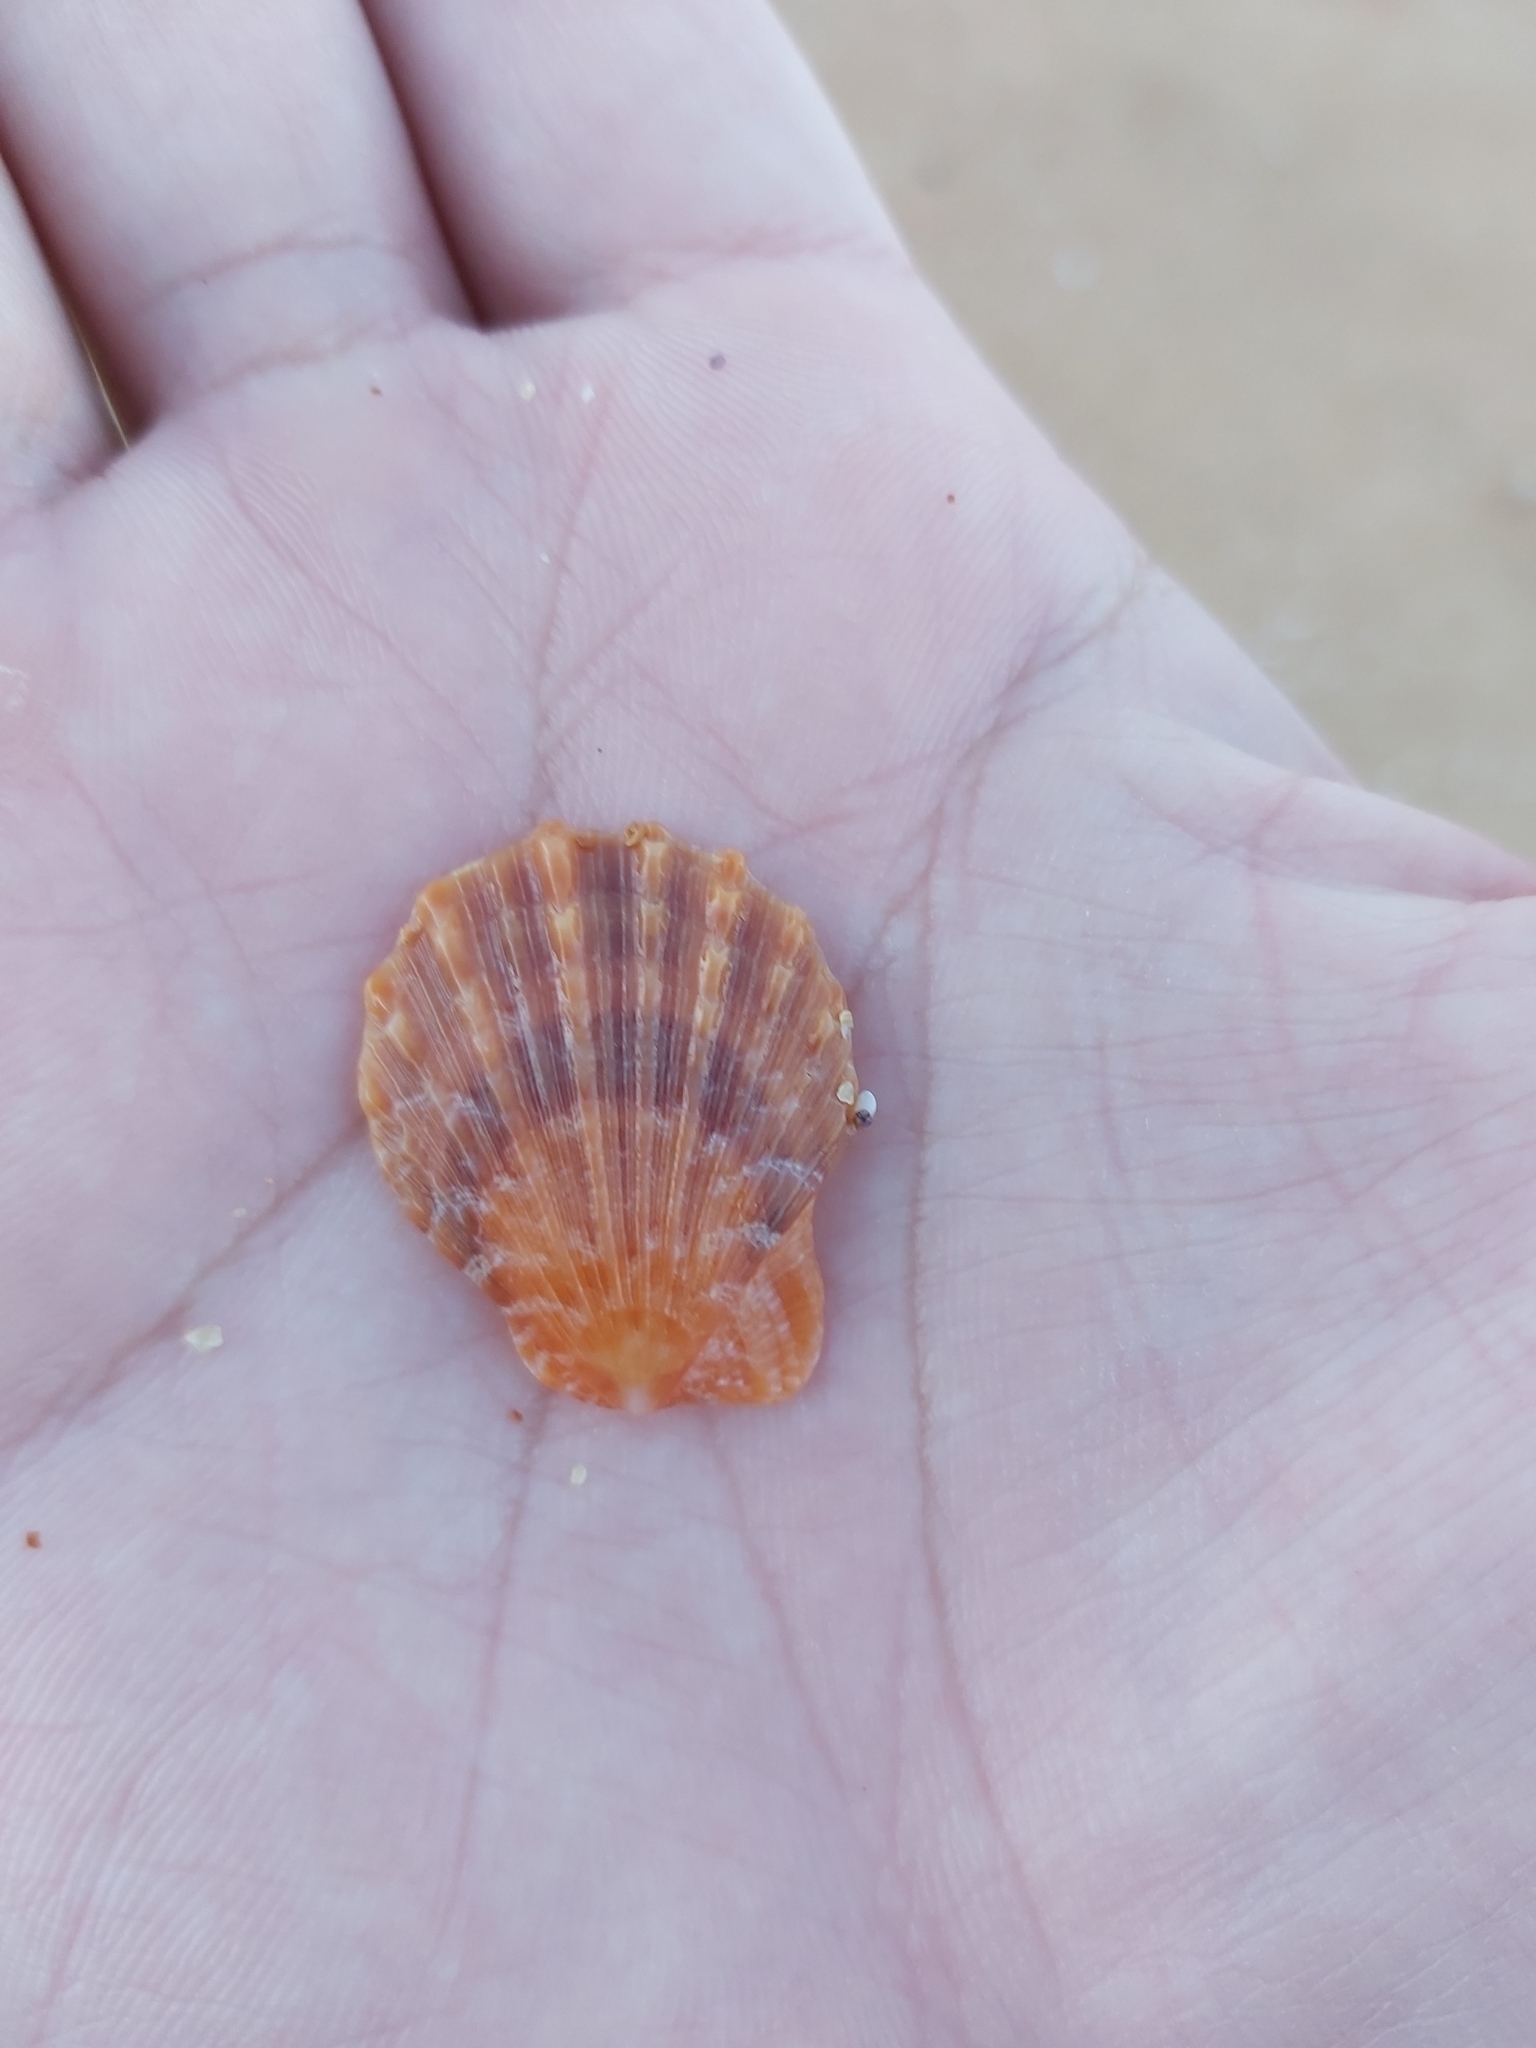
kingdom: Animalia
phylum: Mollusca
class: Bivalvia
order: Pectinida
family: Pectinidae
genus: Scaeochlamys
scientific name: Scaeochlamys livida
